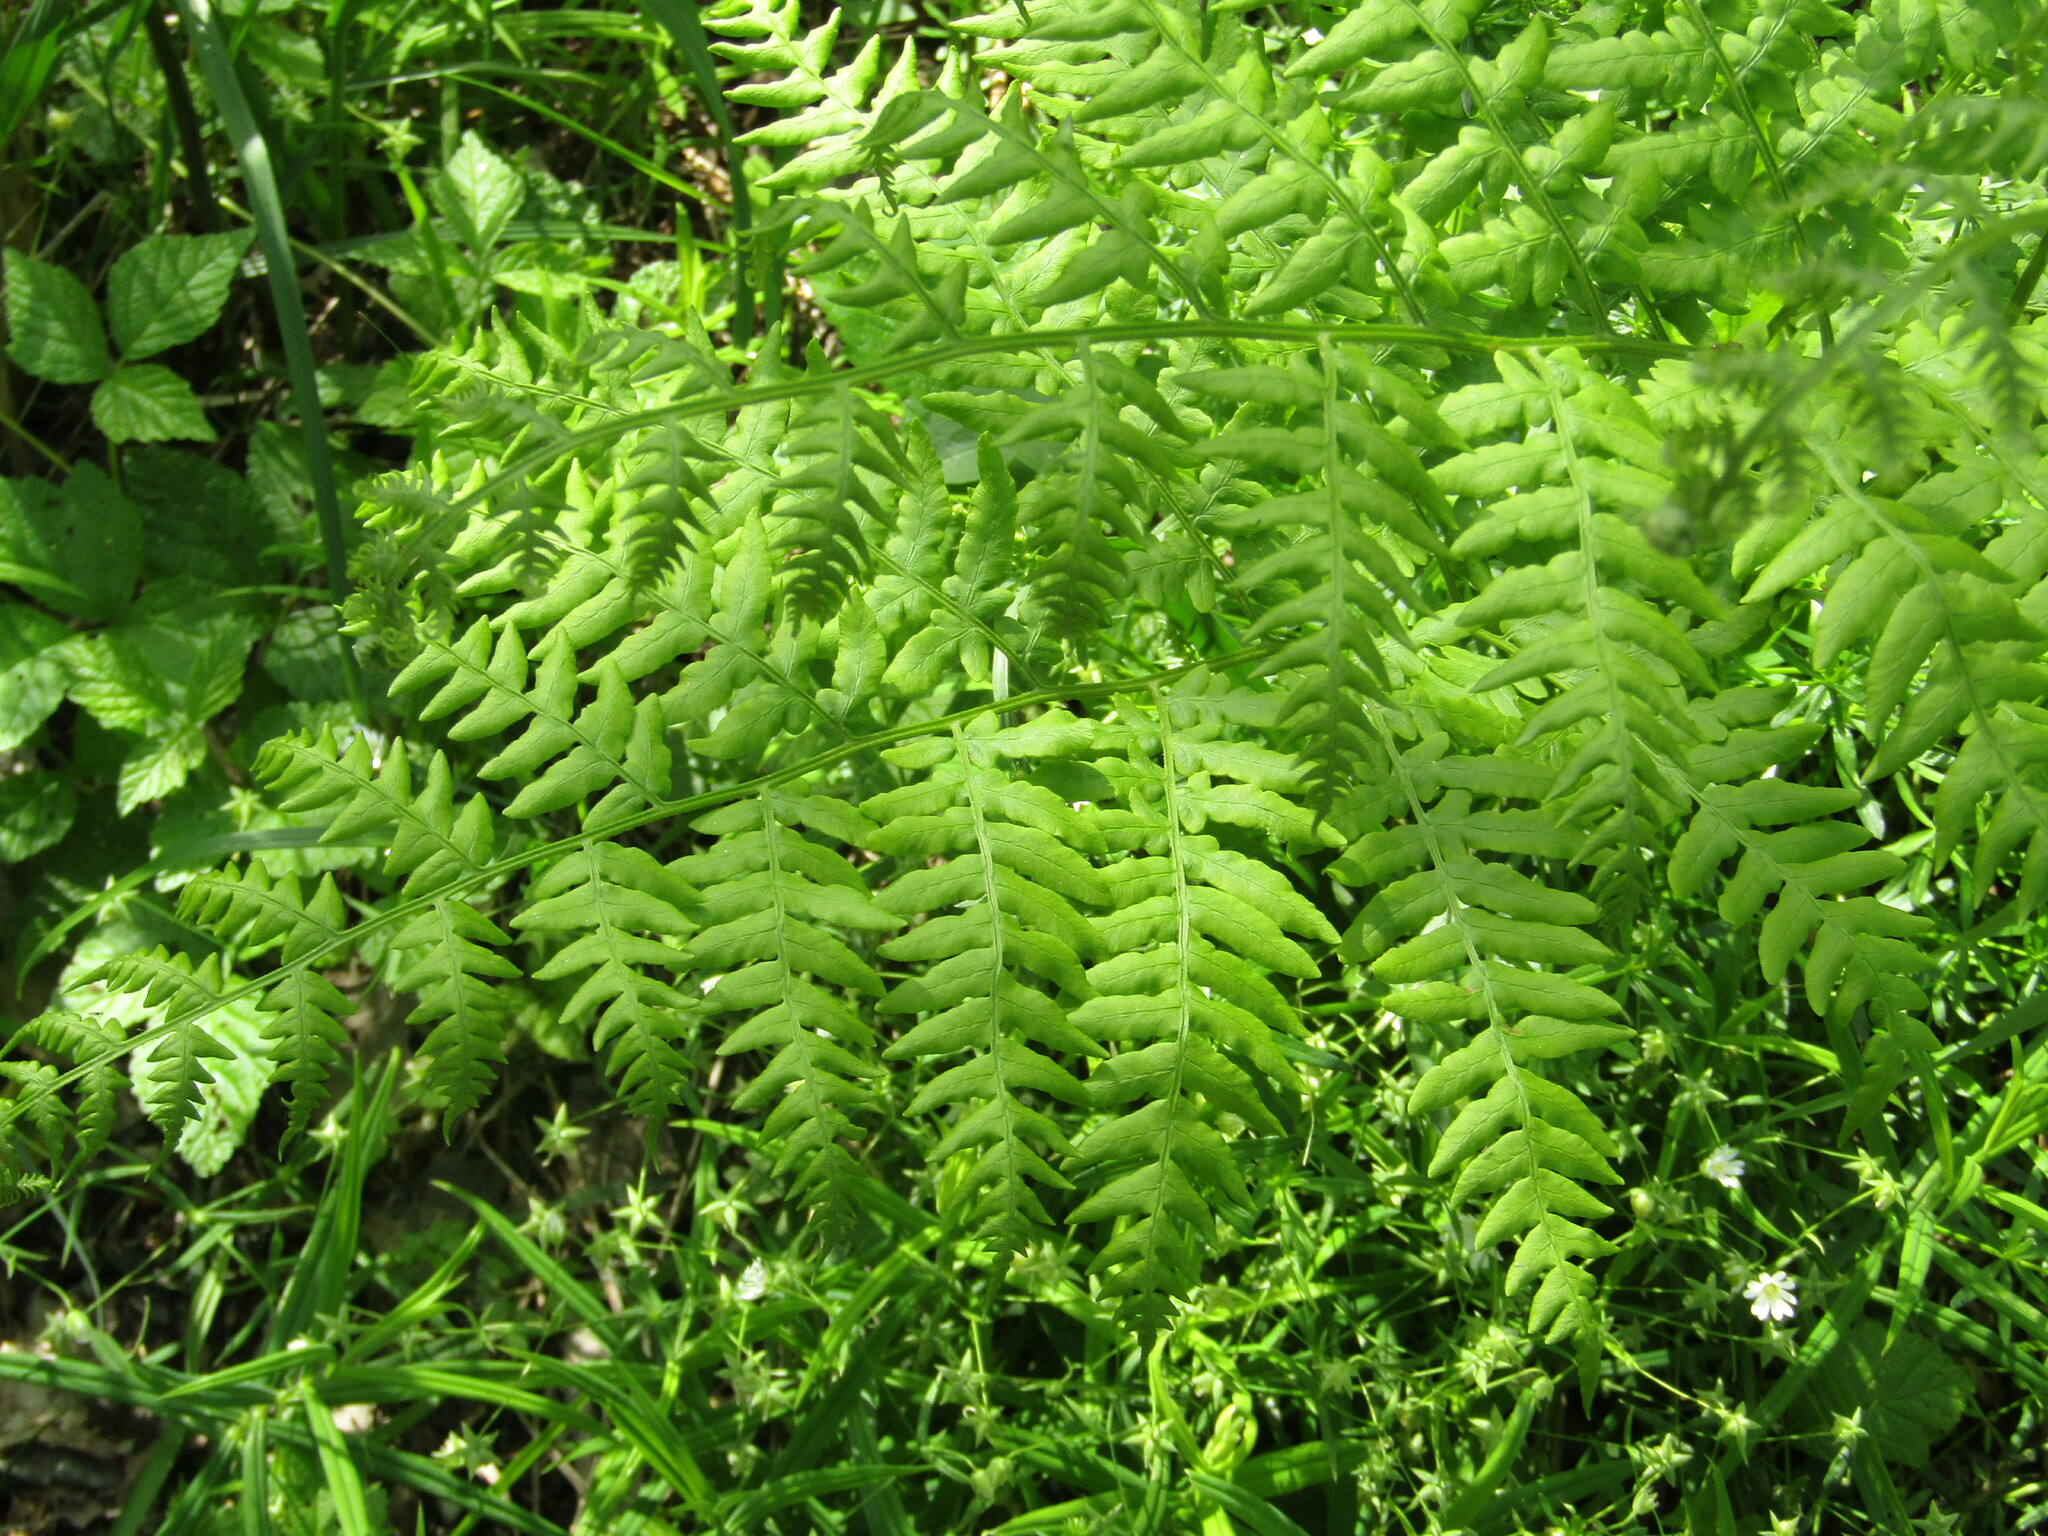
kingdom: Plantae
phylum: Tracheophyta
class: Polypodiopsida
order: Polypodiales
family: Dennstaedtiaceae
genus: Pteridium
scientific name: Pteridium aquilinum
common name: Bracken
